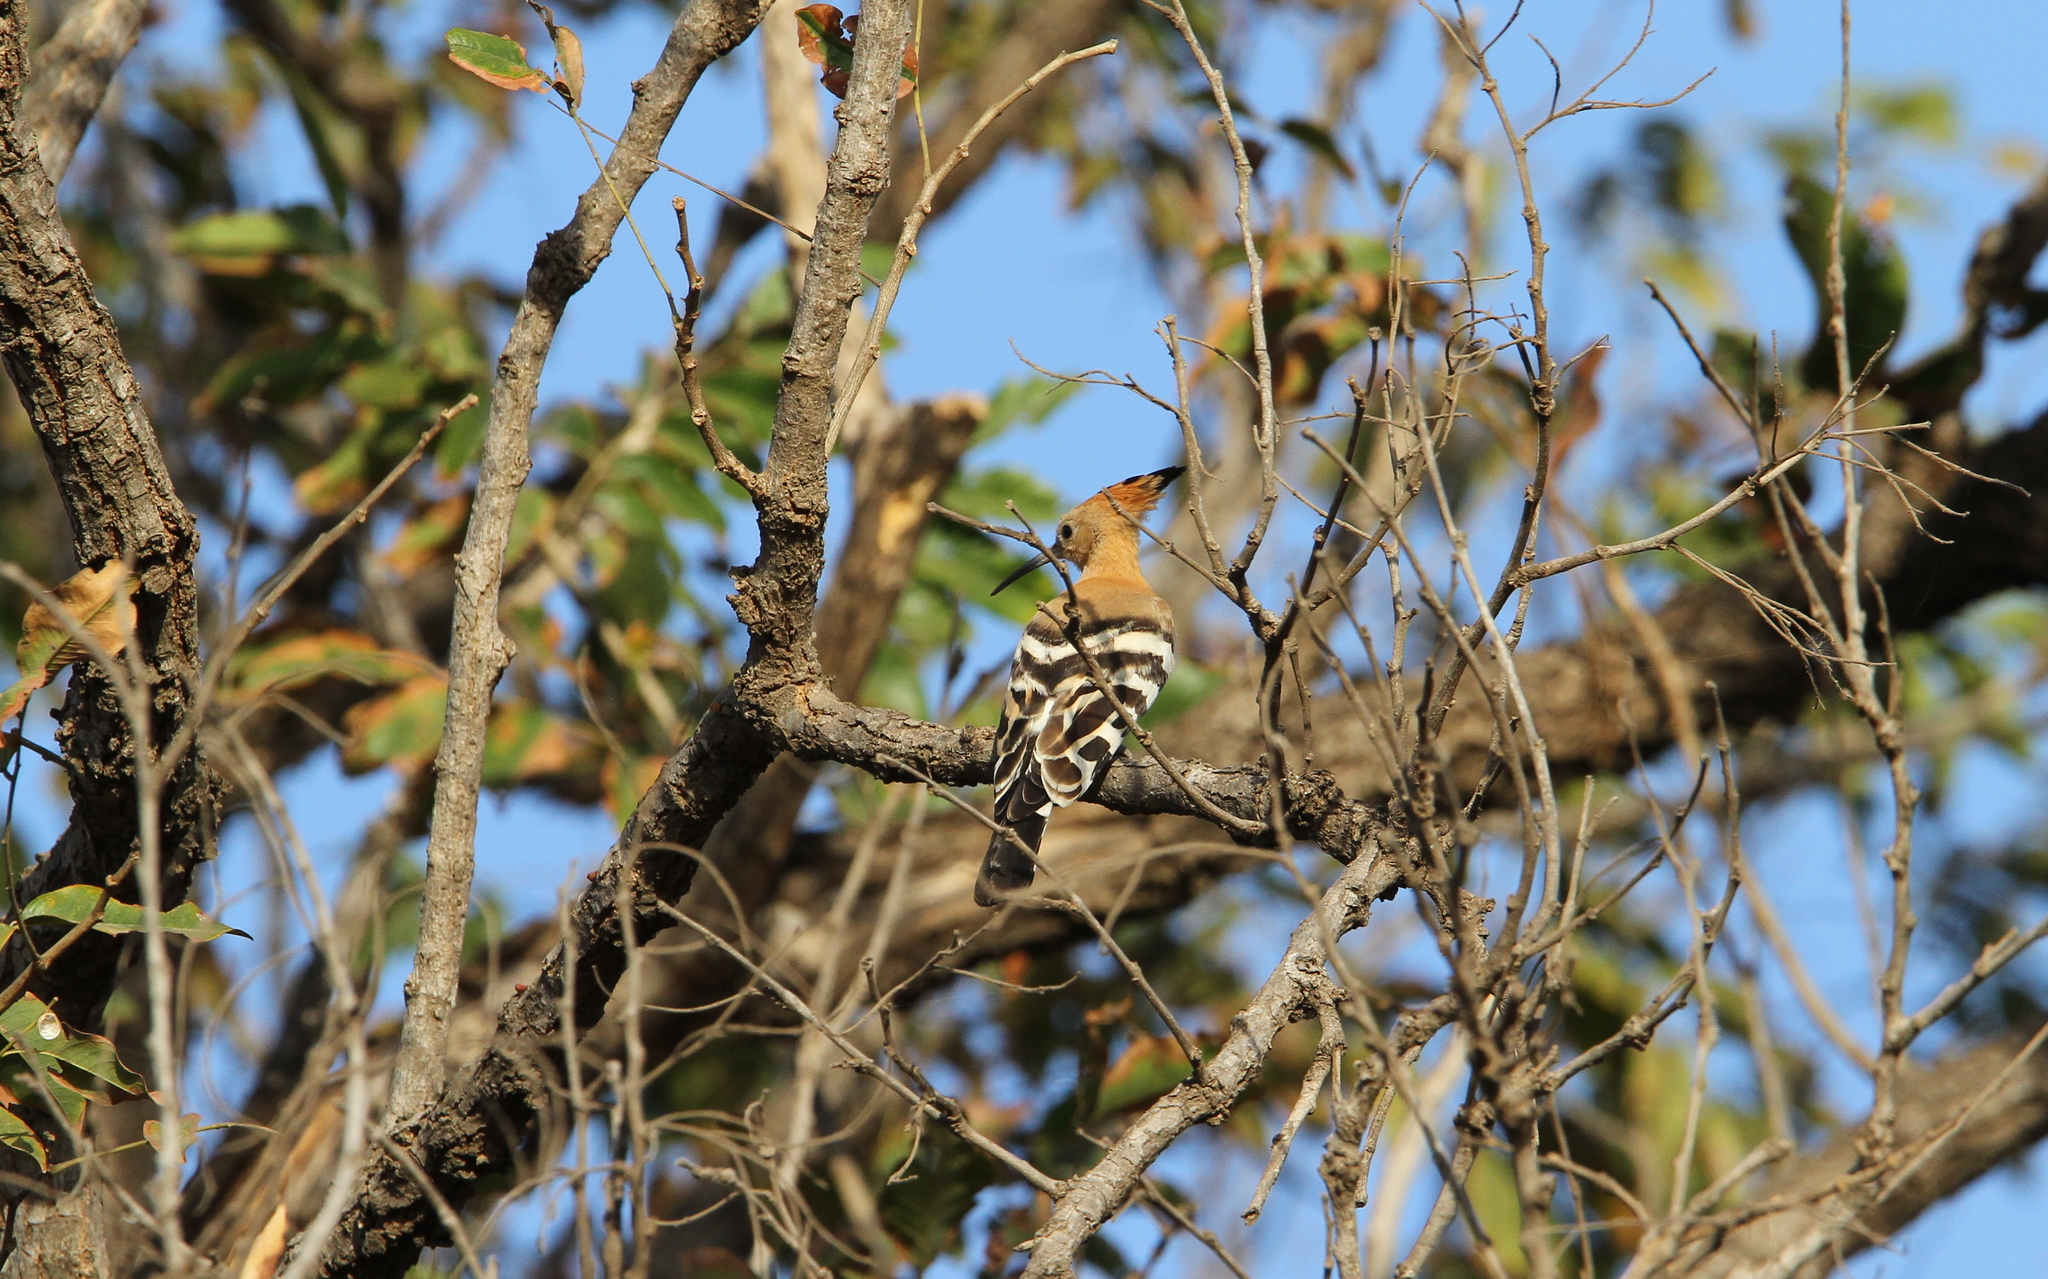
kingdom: Animalia
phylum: Chordata
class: Aves
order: Bucerotiformes
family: Upupidae
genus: Upupa
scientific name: Upupa epops
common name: Eurasian hoopoe
